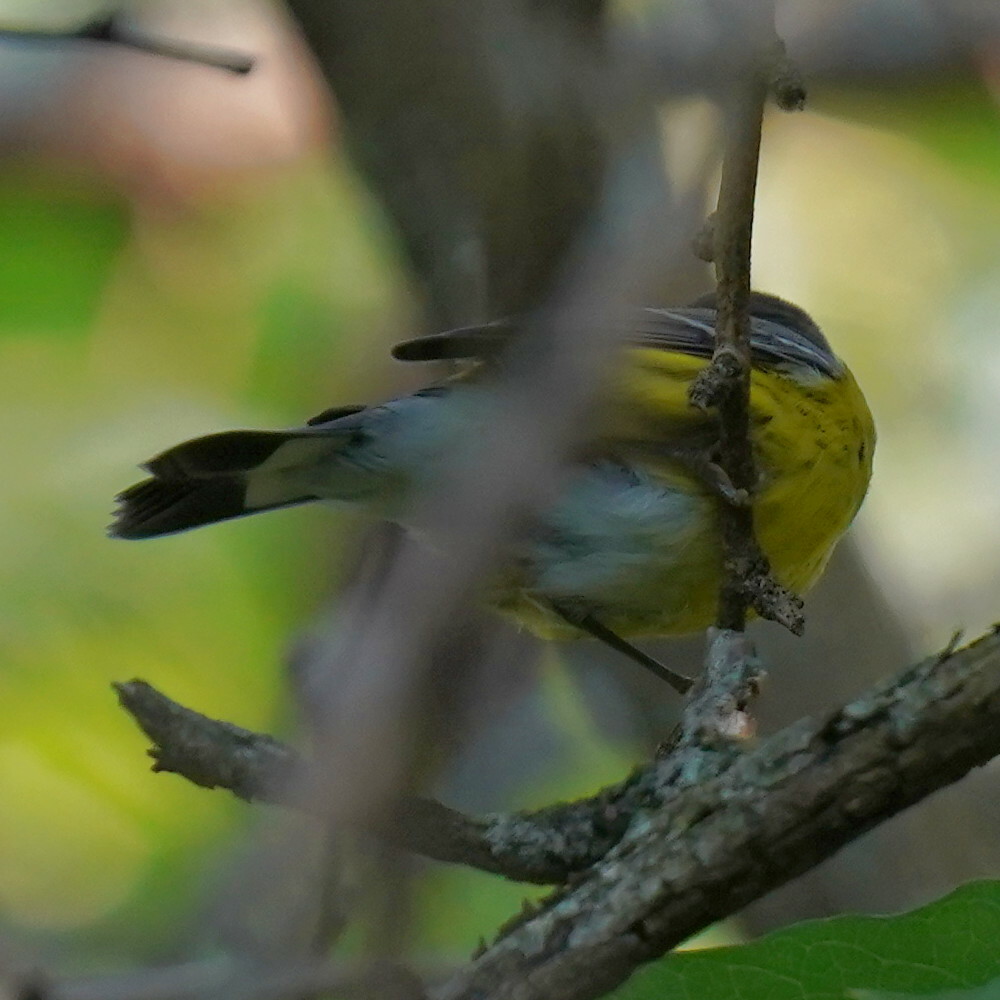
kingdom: Animalia
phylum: Chordata
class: Aves
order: Passeriformes
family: Parulidae
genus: Setophaga
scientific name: Setophaga magnolia
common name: Magnolia warbler
